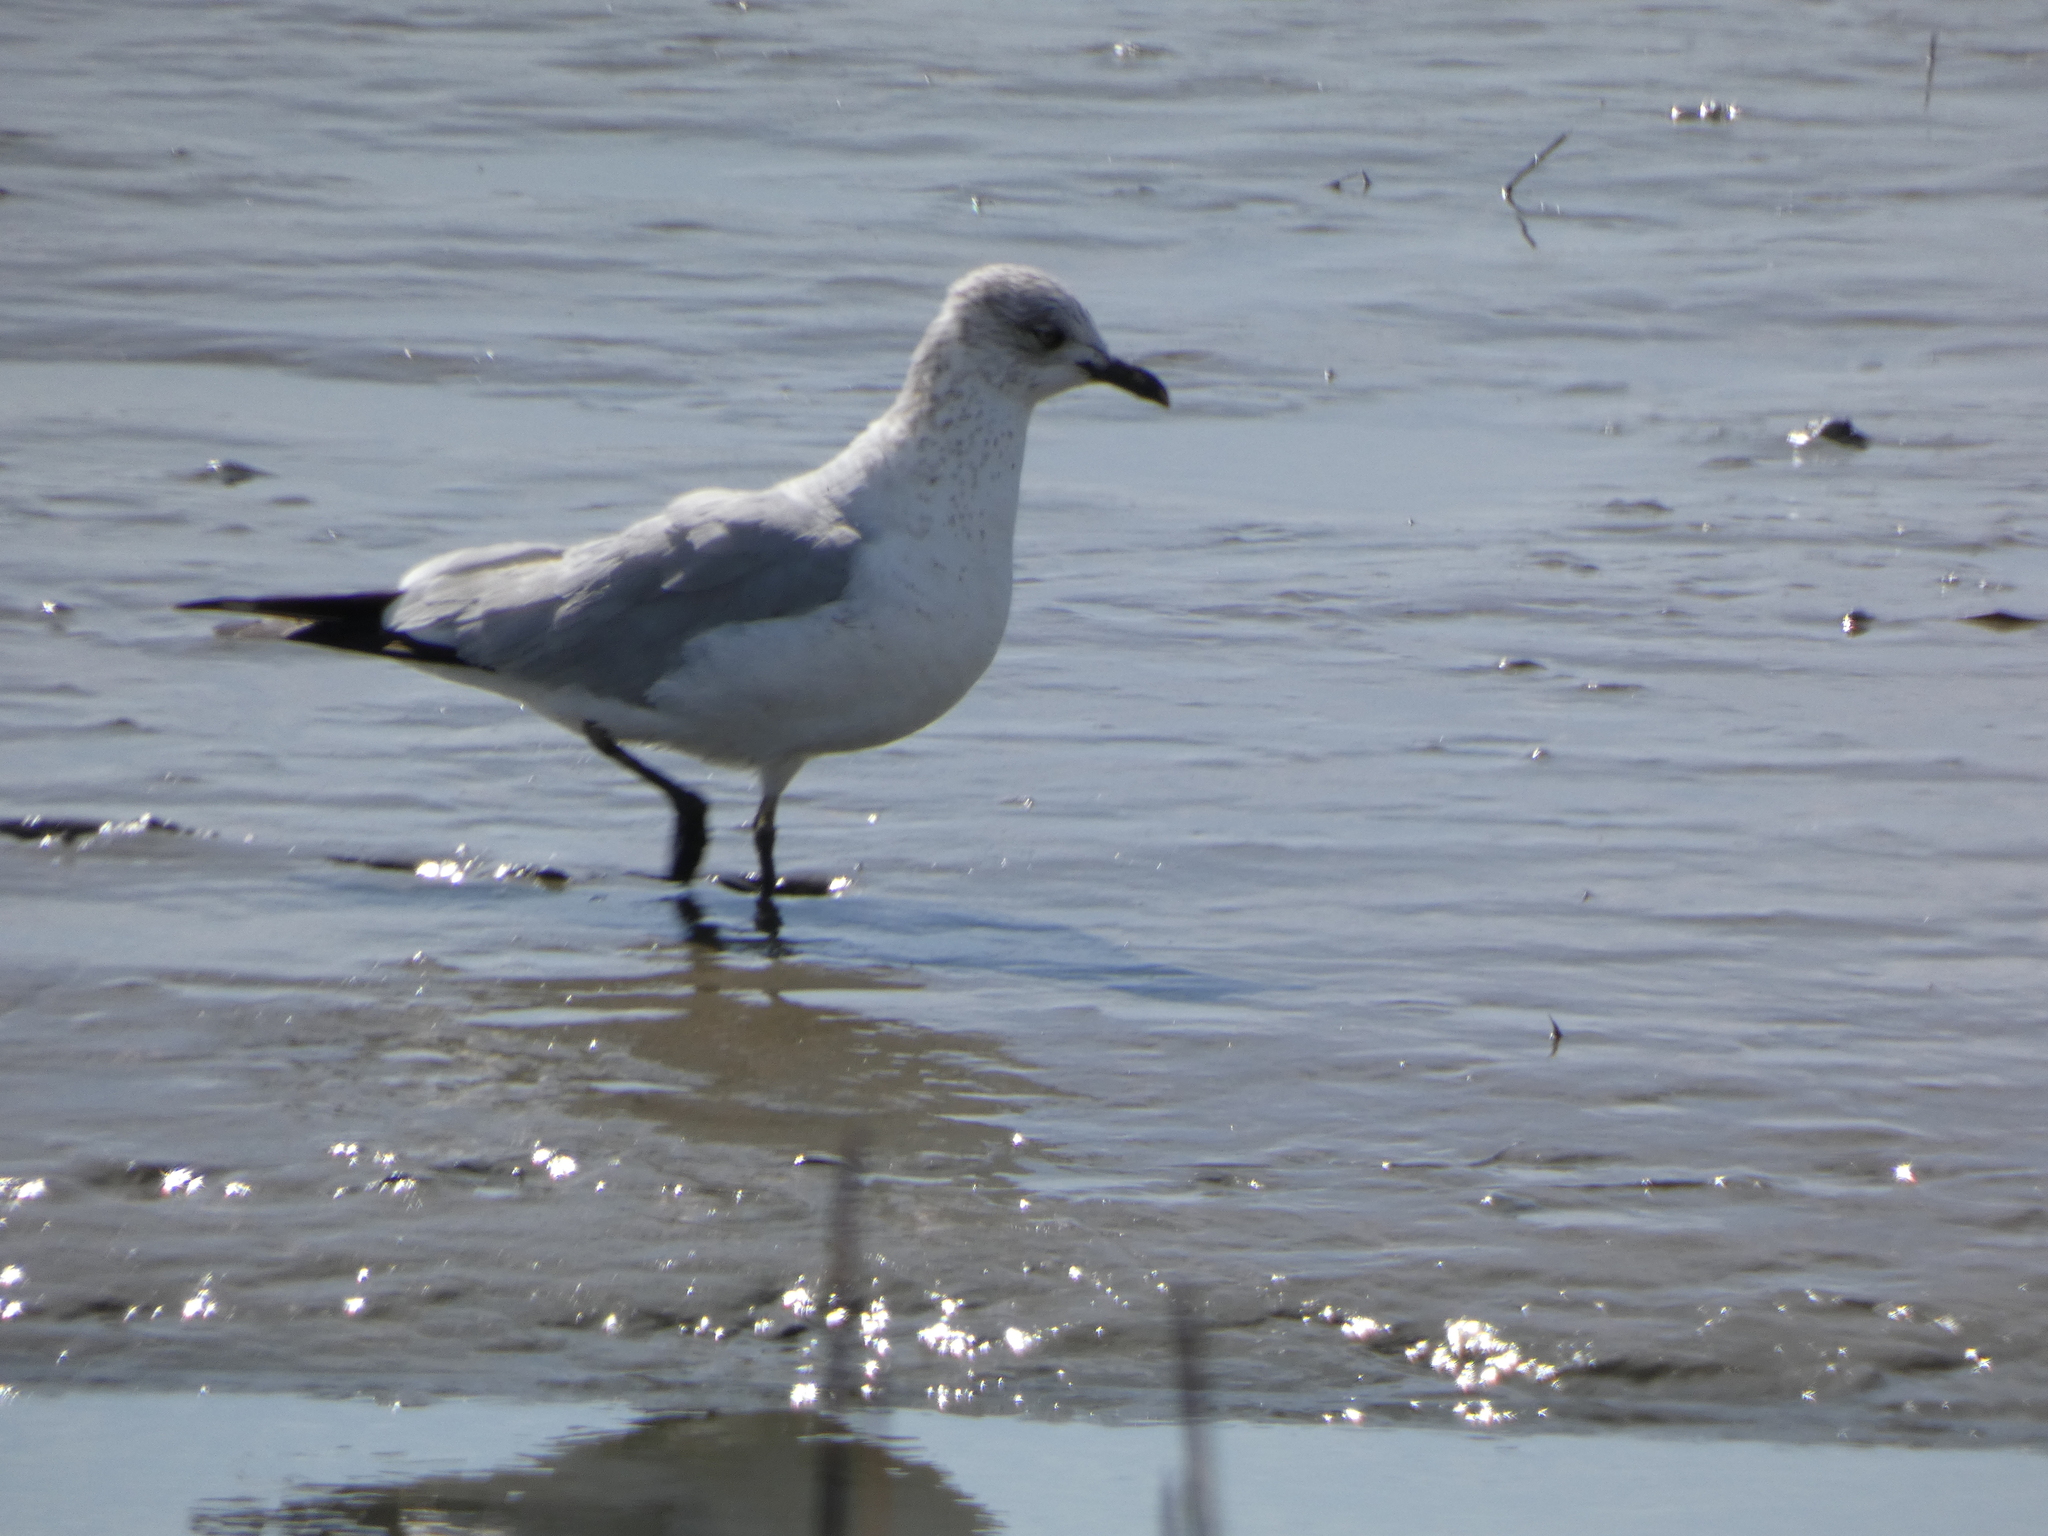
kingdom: Animalia
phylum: Chordata
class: Aves
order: Charadriiformes
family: Laridae
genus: Leucophaeus
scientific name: Leucophaeus atricilla
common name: Laughing gull
